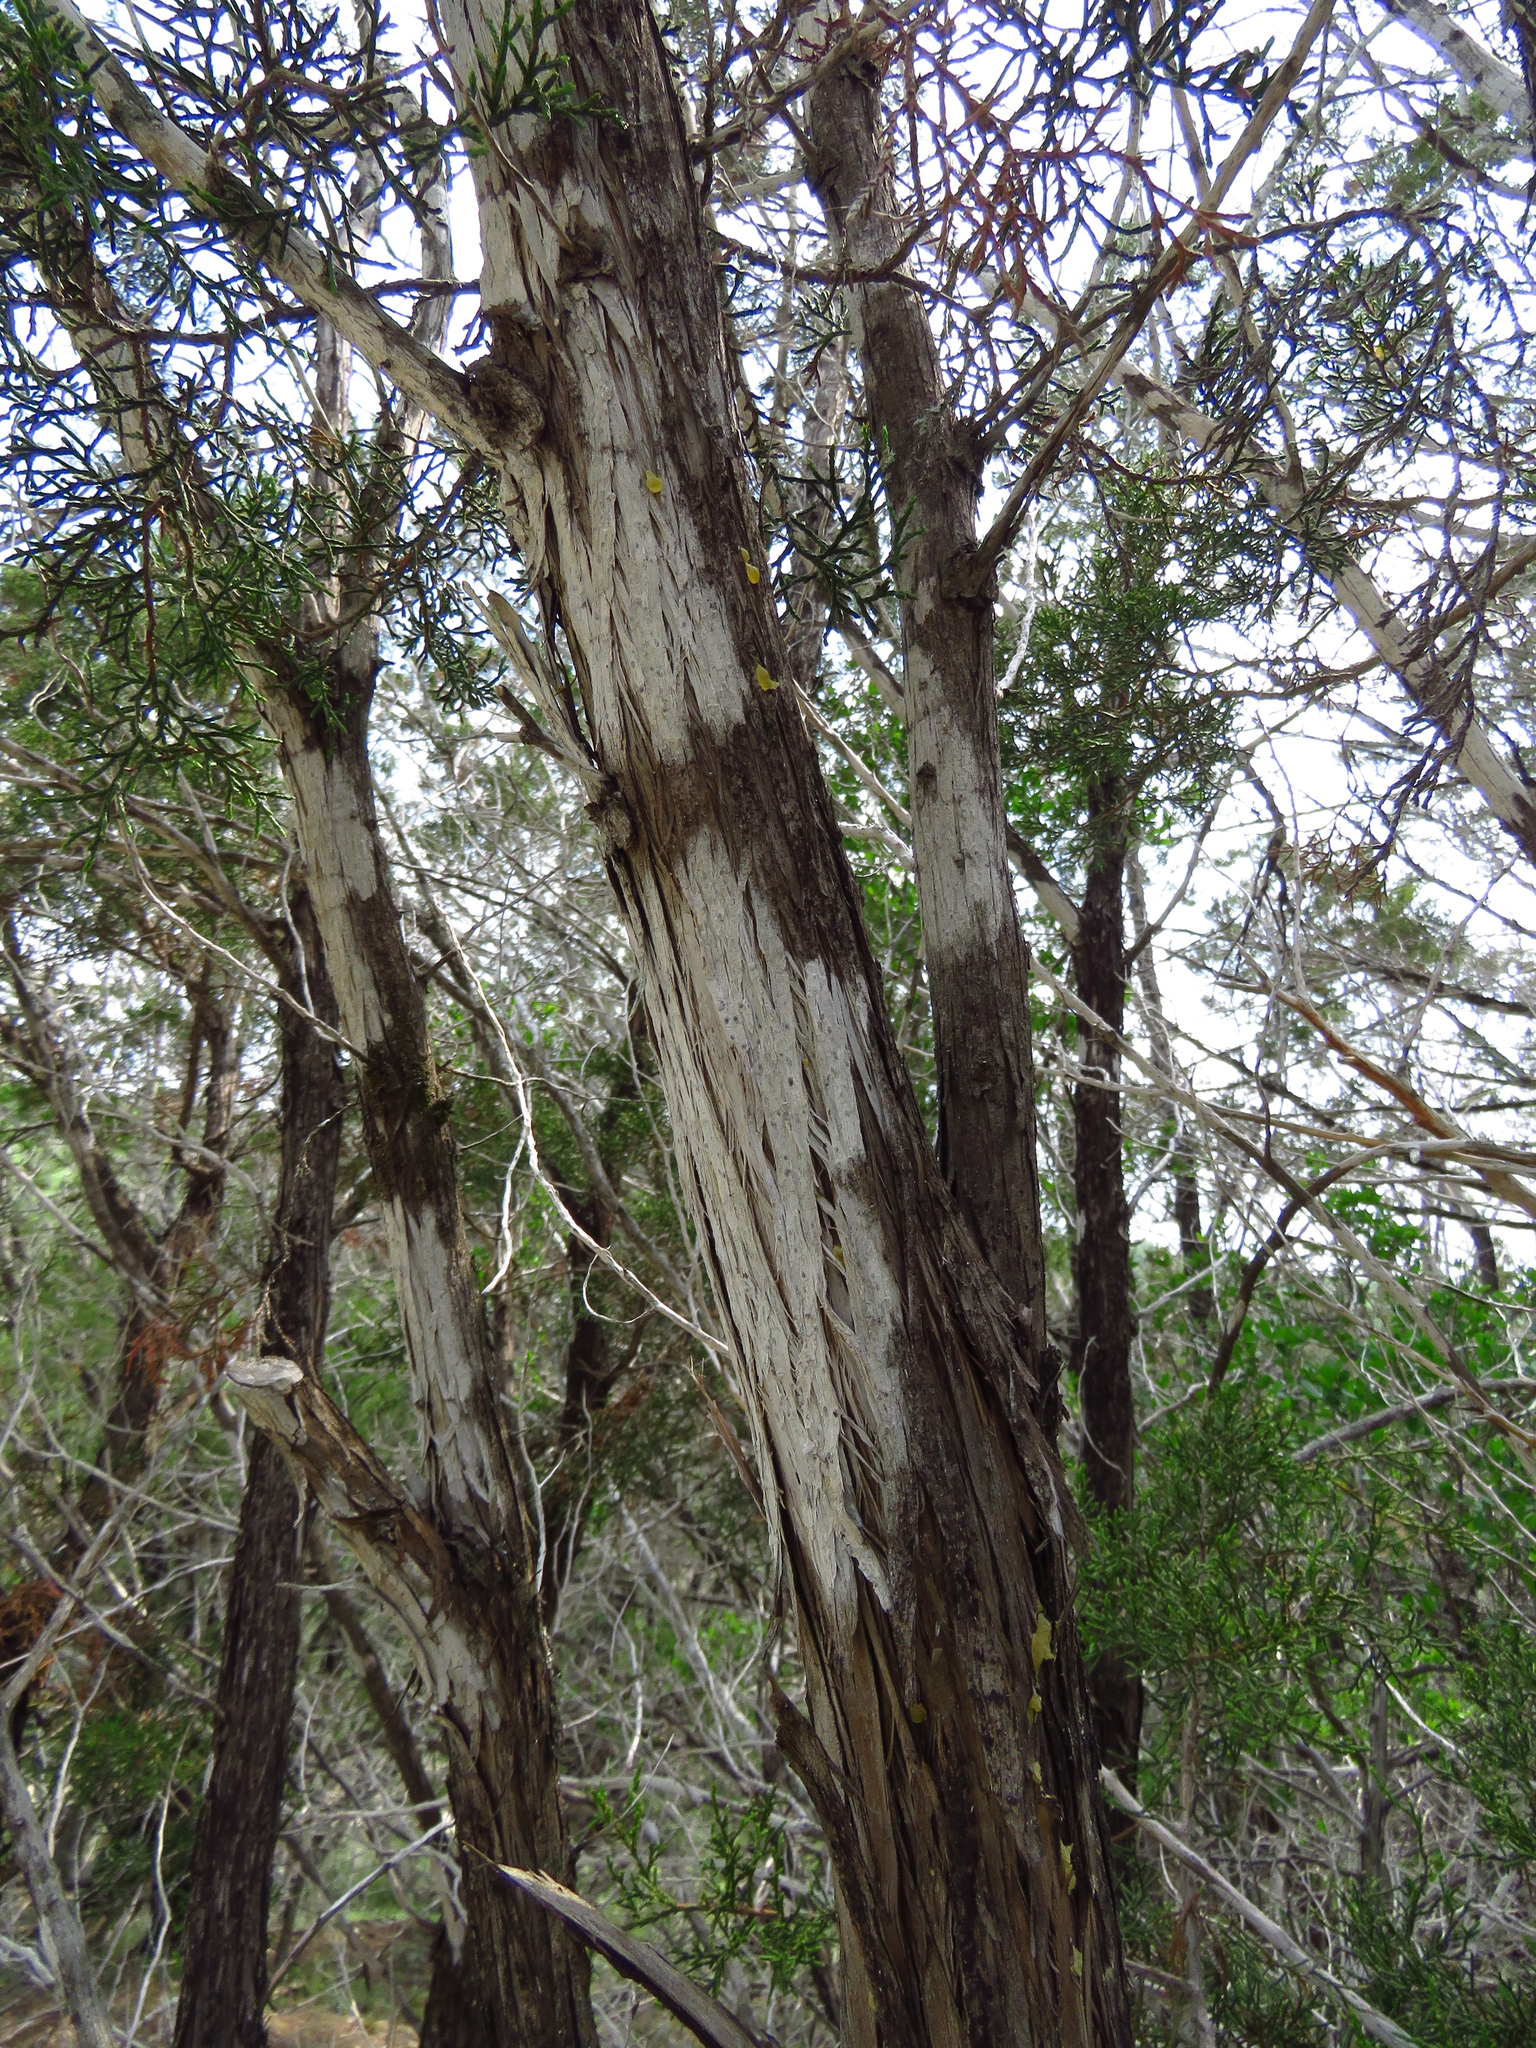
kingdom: Fungi
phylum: Ascomycota
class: Lecanoromycetes
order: Ostropales
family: Stictidaceae
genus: Robergea
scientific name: Robergea
